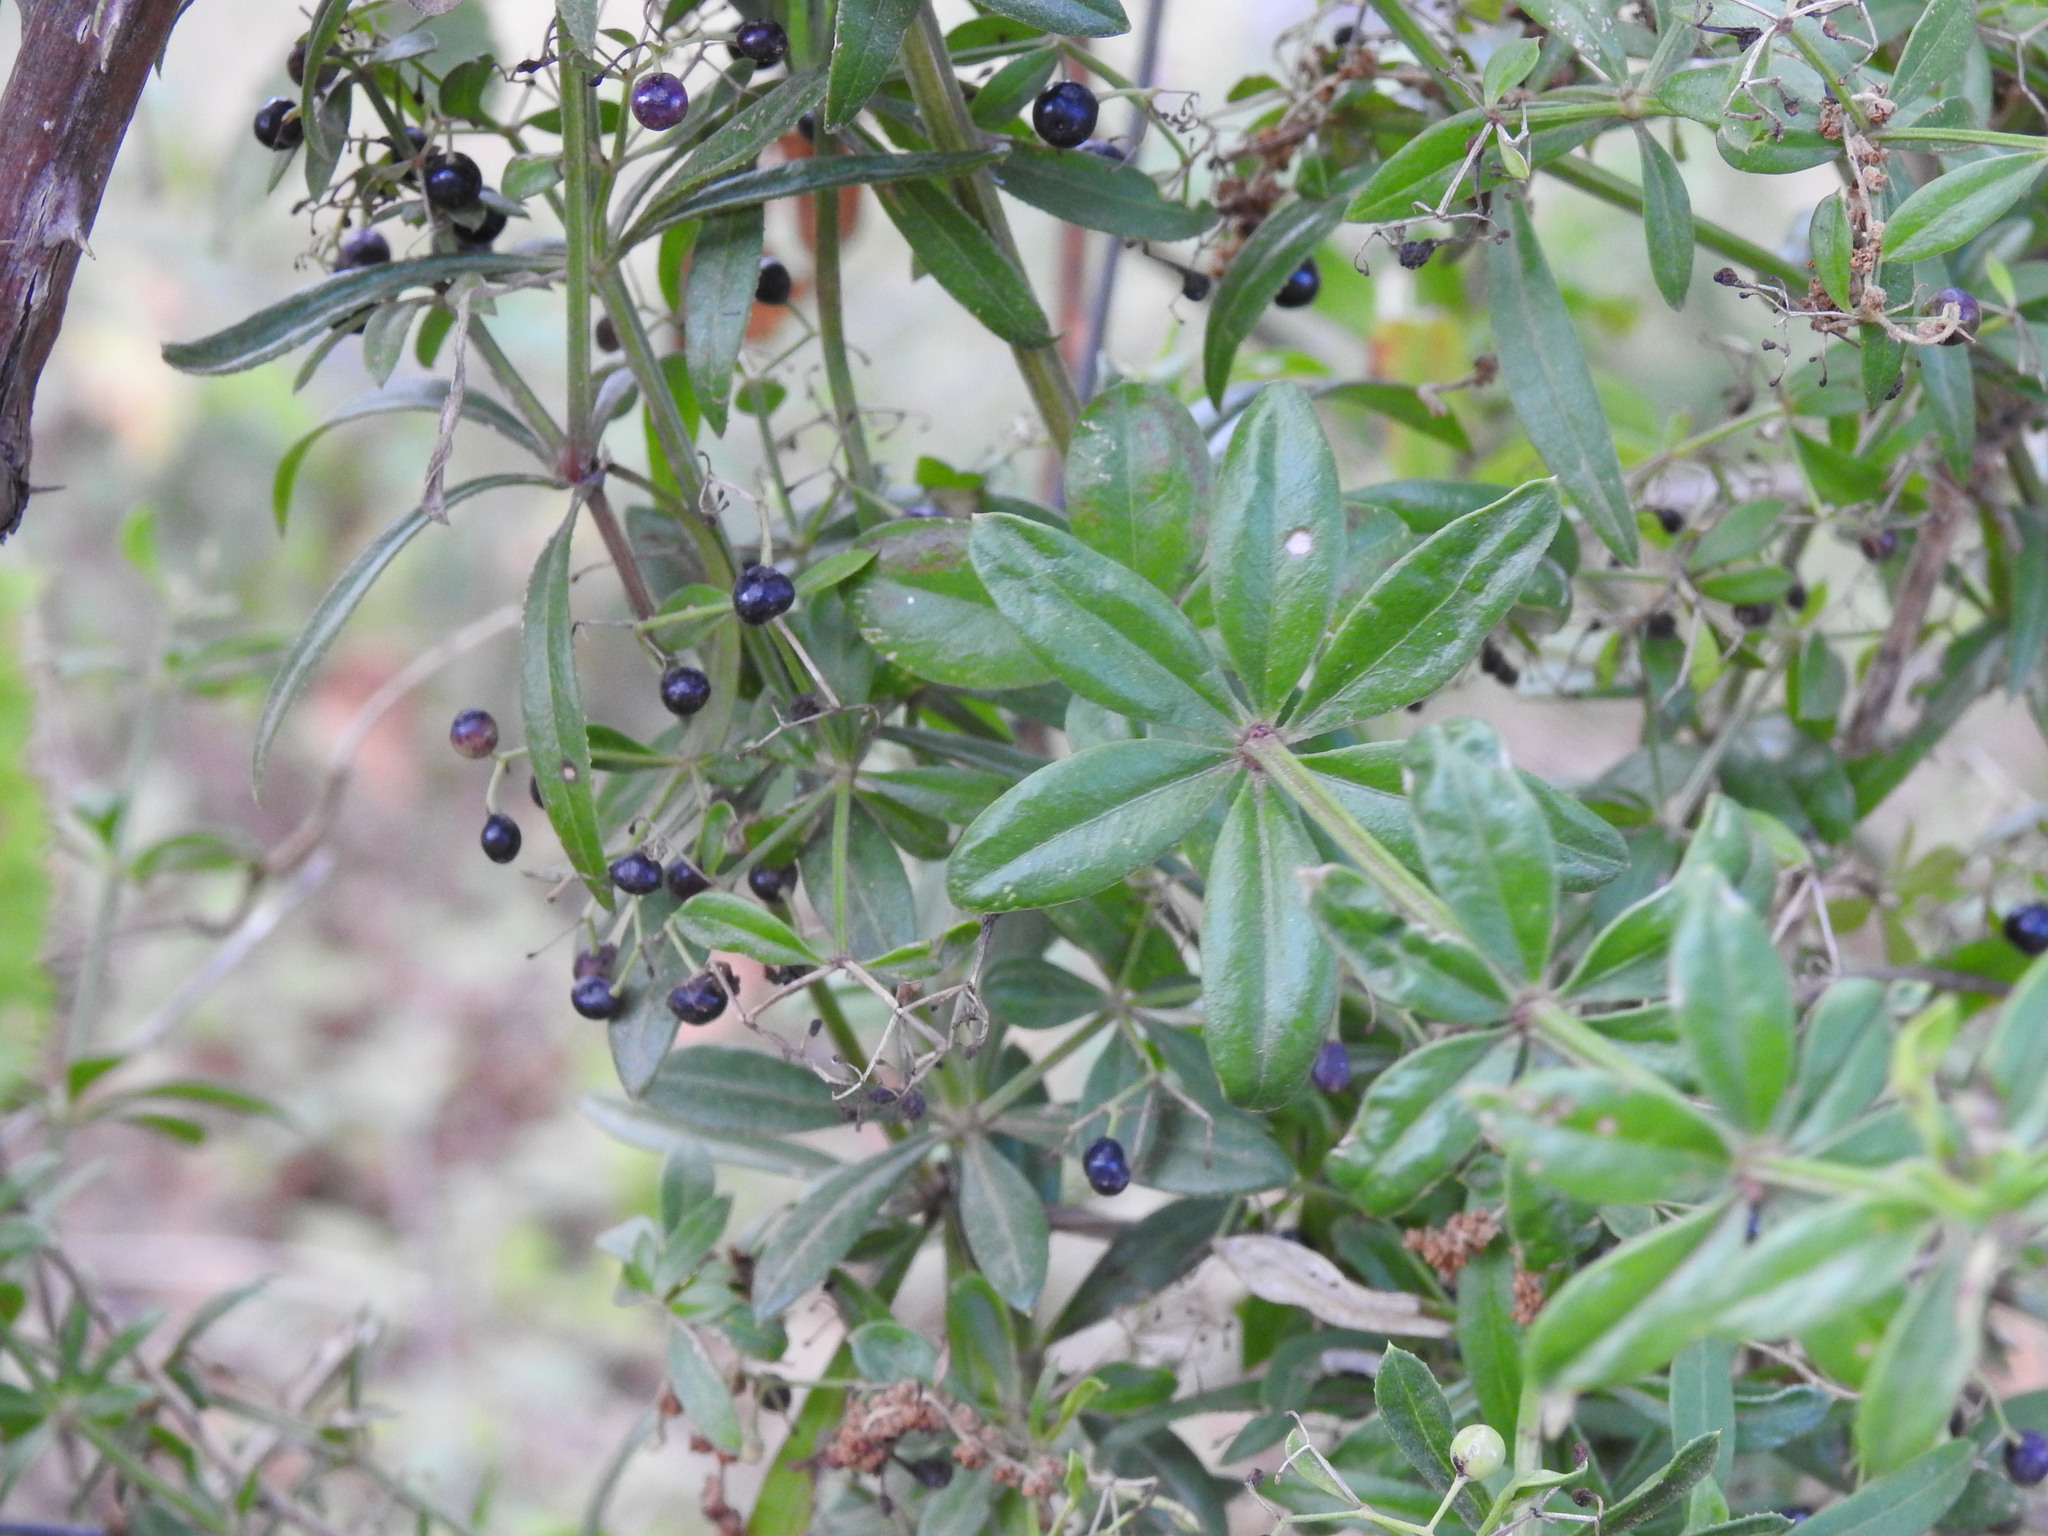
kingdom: Plantae
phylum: Tracheophyta
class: Magnoliopsida
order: Gentianales
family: Rubiaceae
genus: Rubia
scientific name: Rubia peregrina
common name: Wild madder
